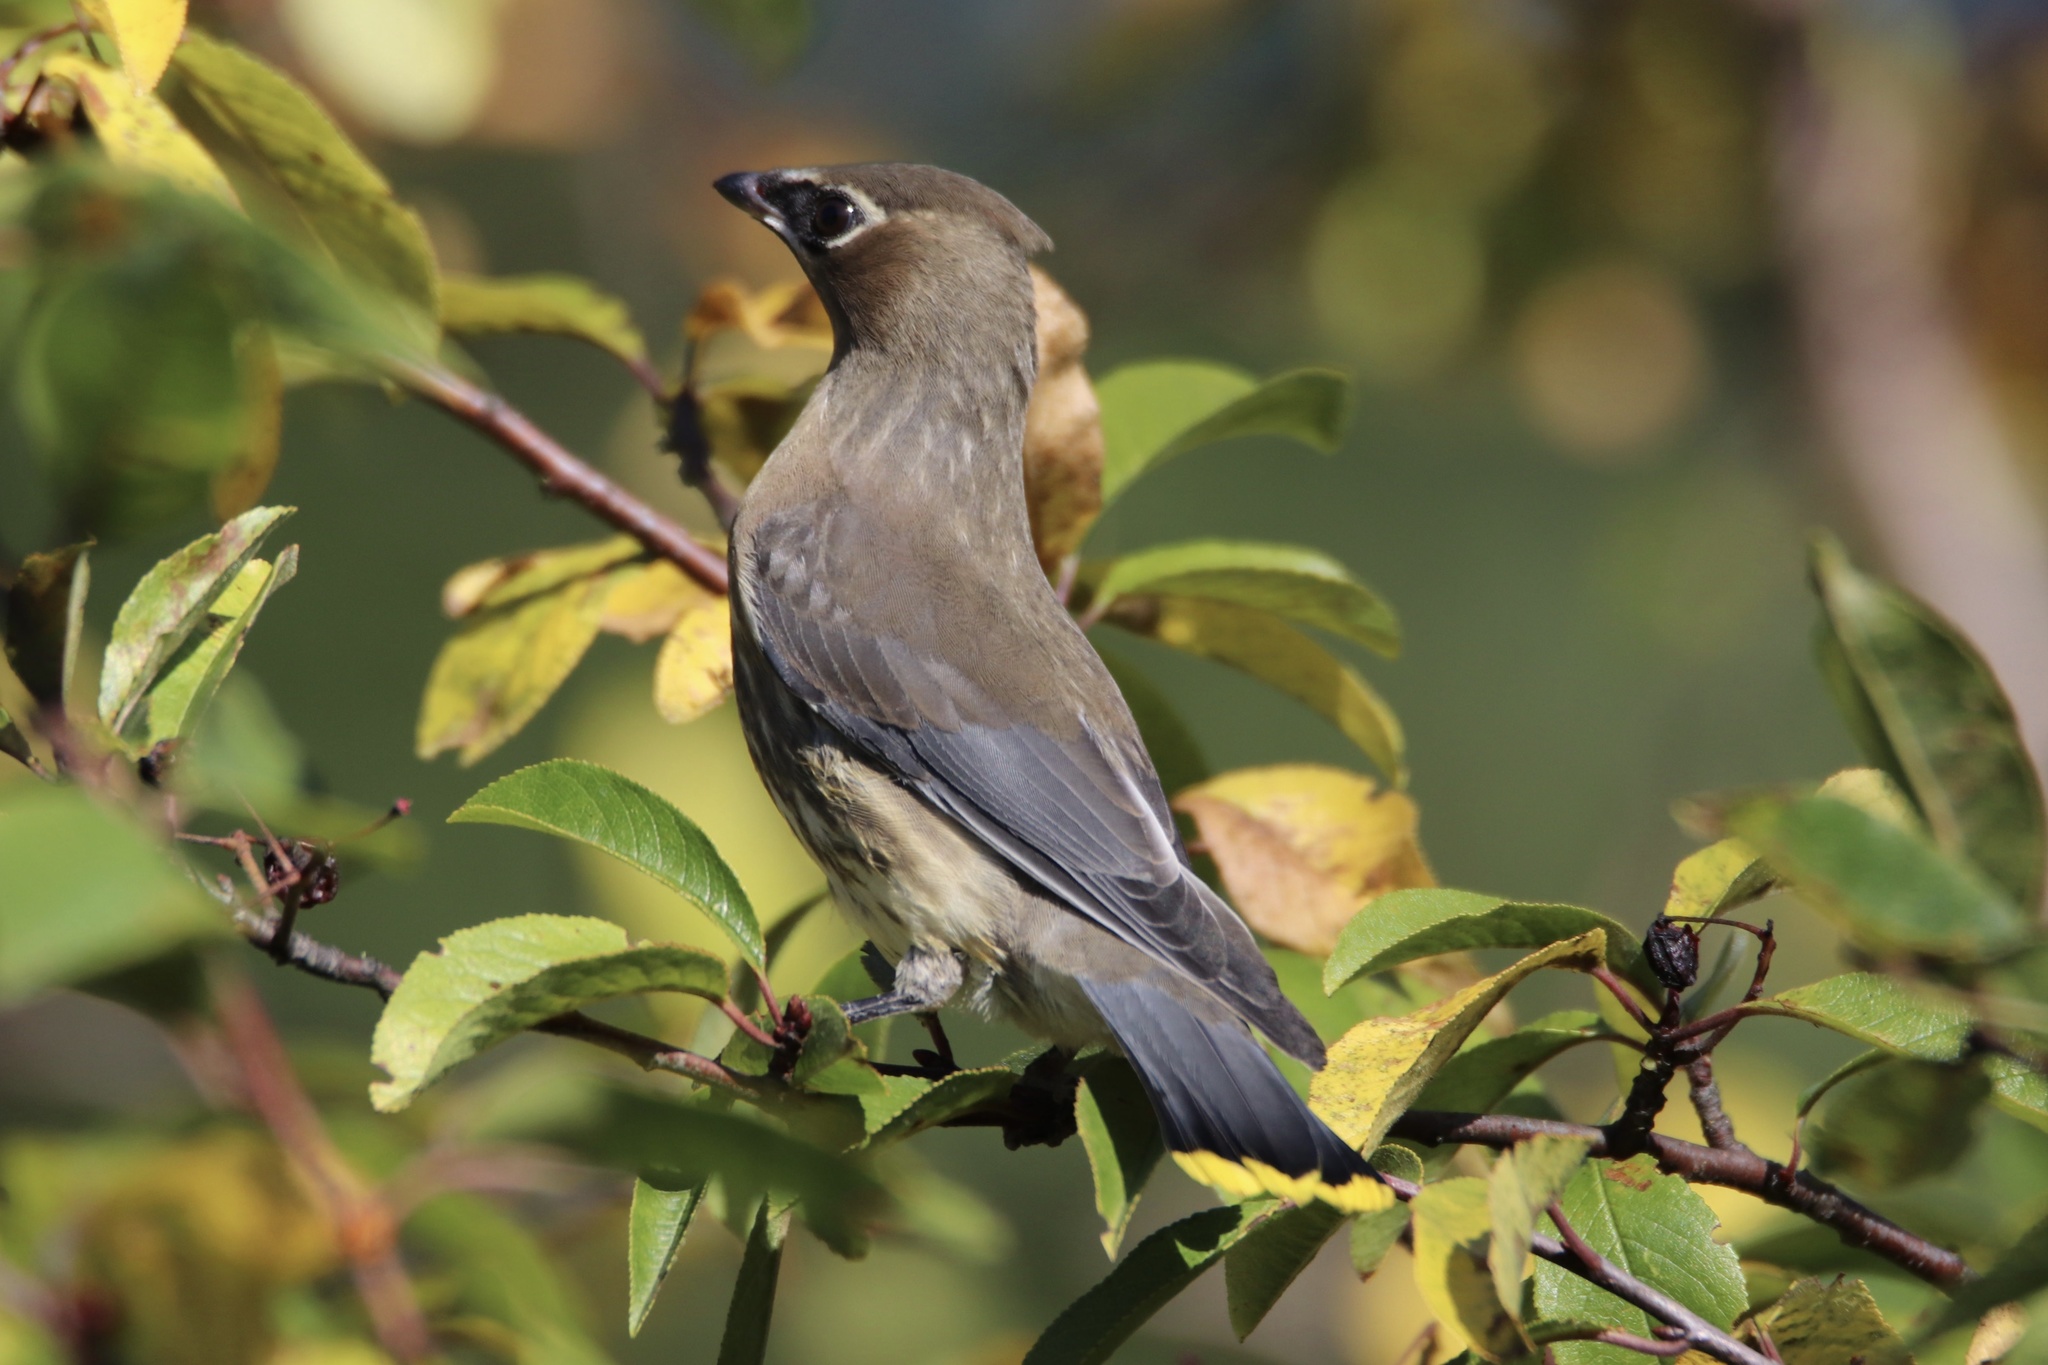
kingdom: Animalia
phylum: Chordata
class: Aves
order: Passeriformes
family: Bombycillidae
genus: Bombycilla
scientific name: Bombycilla cedrorum
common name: Cedar waxwing
